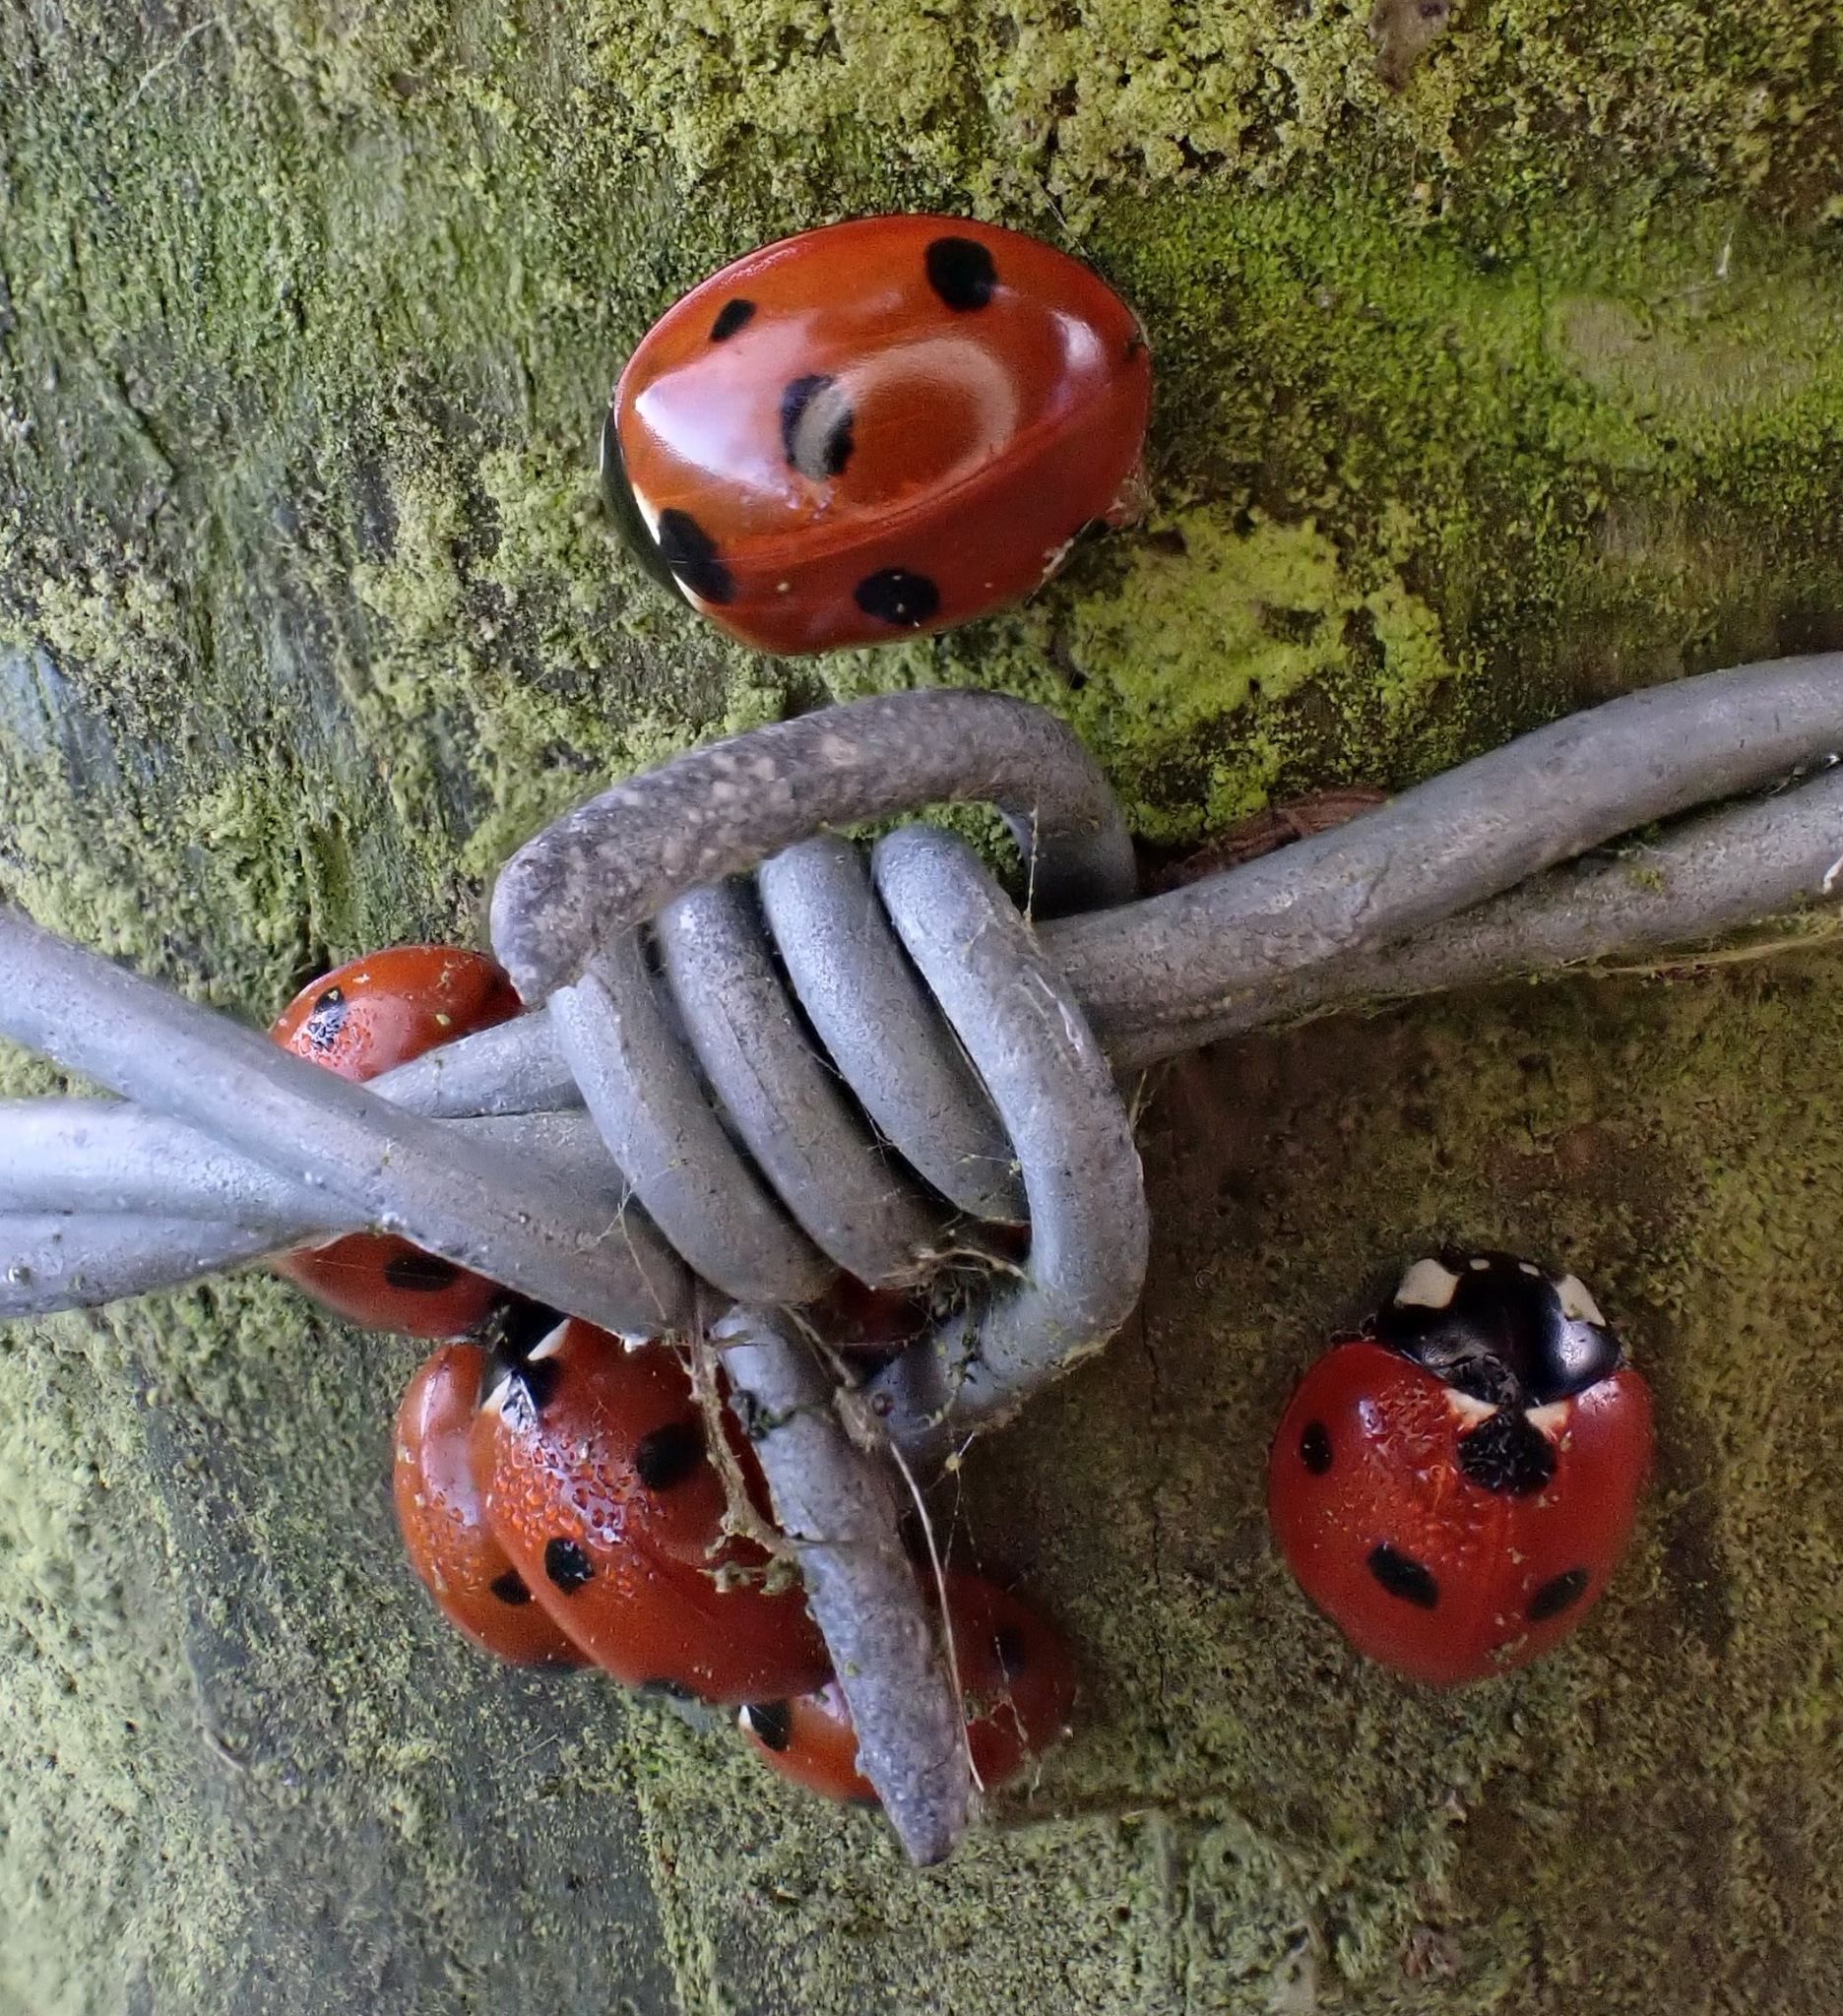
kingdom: Animalia
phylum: Arthropoda
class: Insecta
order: Coleoptera
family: Coccinellidae
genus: Coccinella
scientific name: Coccinella septempunctata
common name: Sevenspotted lady beetle
